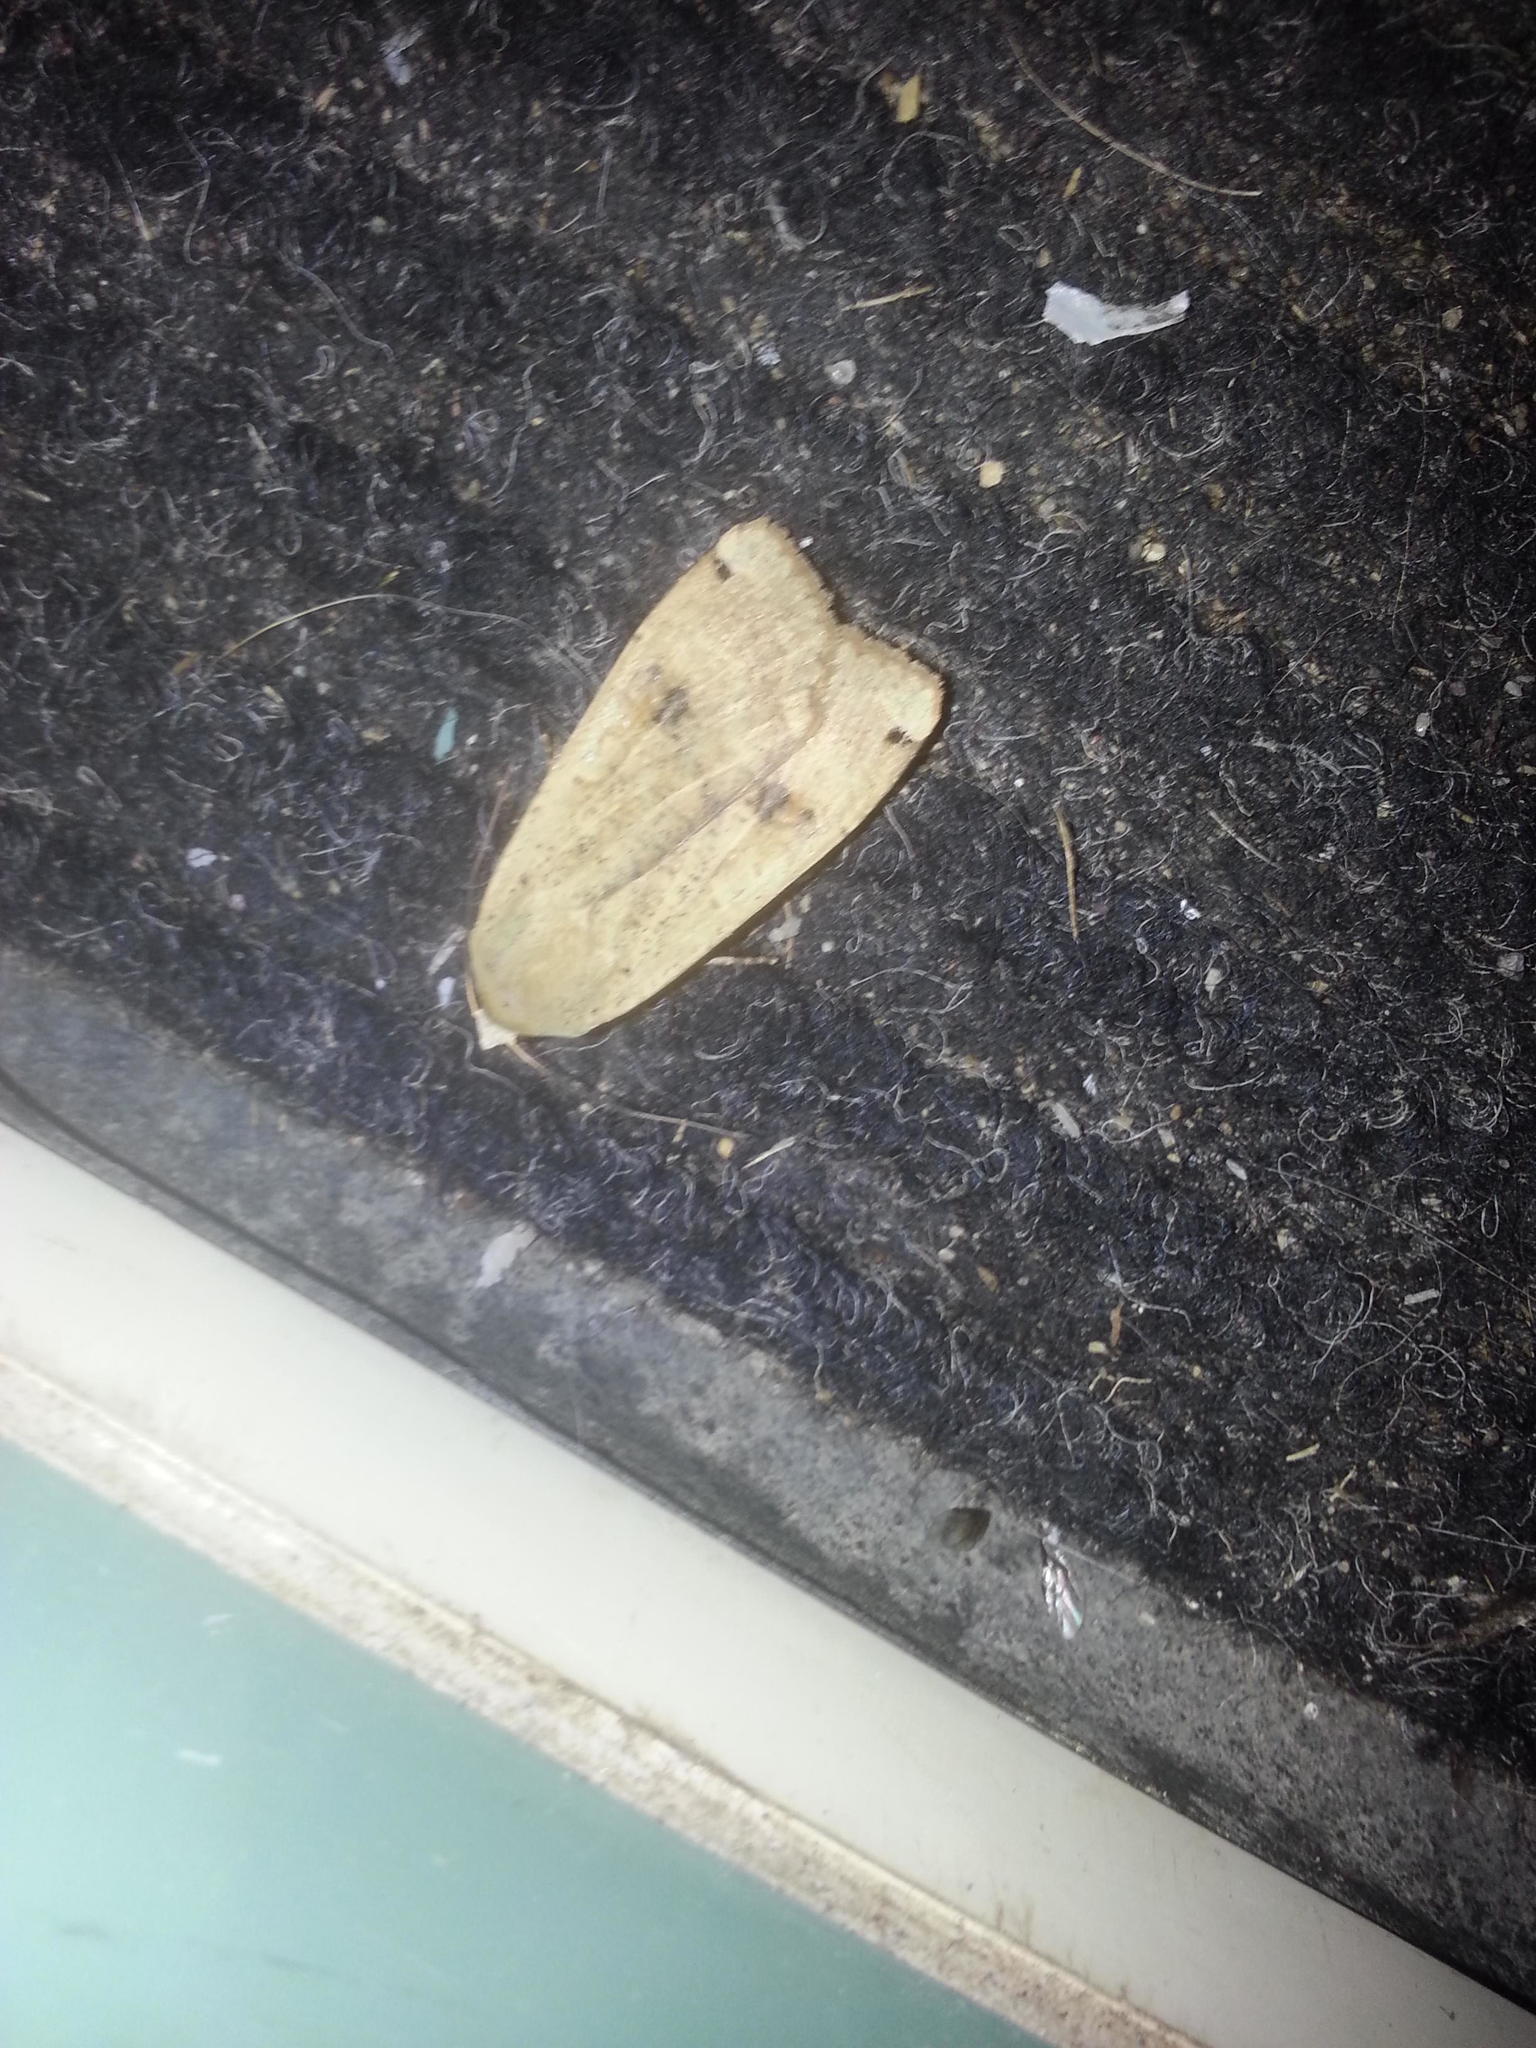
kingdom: Animalia
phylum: Arthropoda
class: Insecta
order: Lepidoptera
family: Noctuidae
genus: Noctua
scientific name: Noctua pronuba
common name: Large yellow underwing
